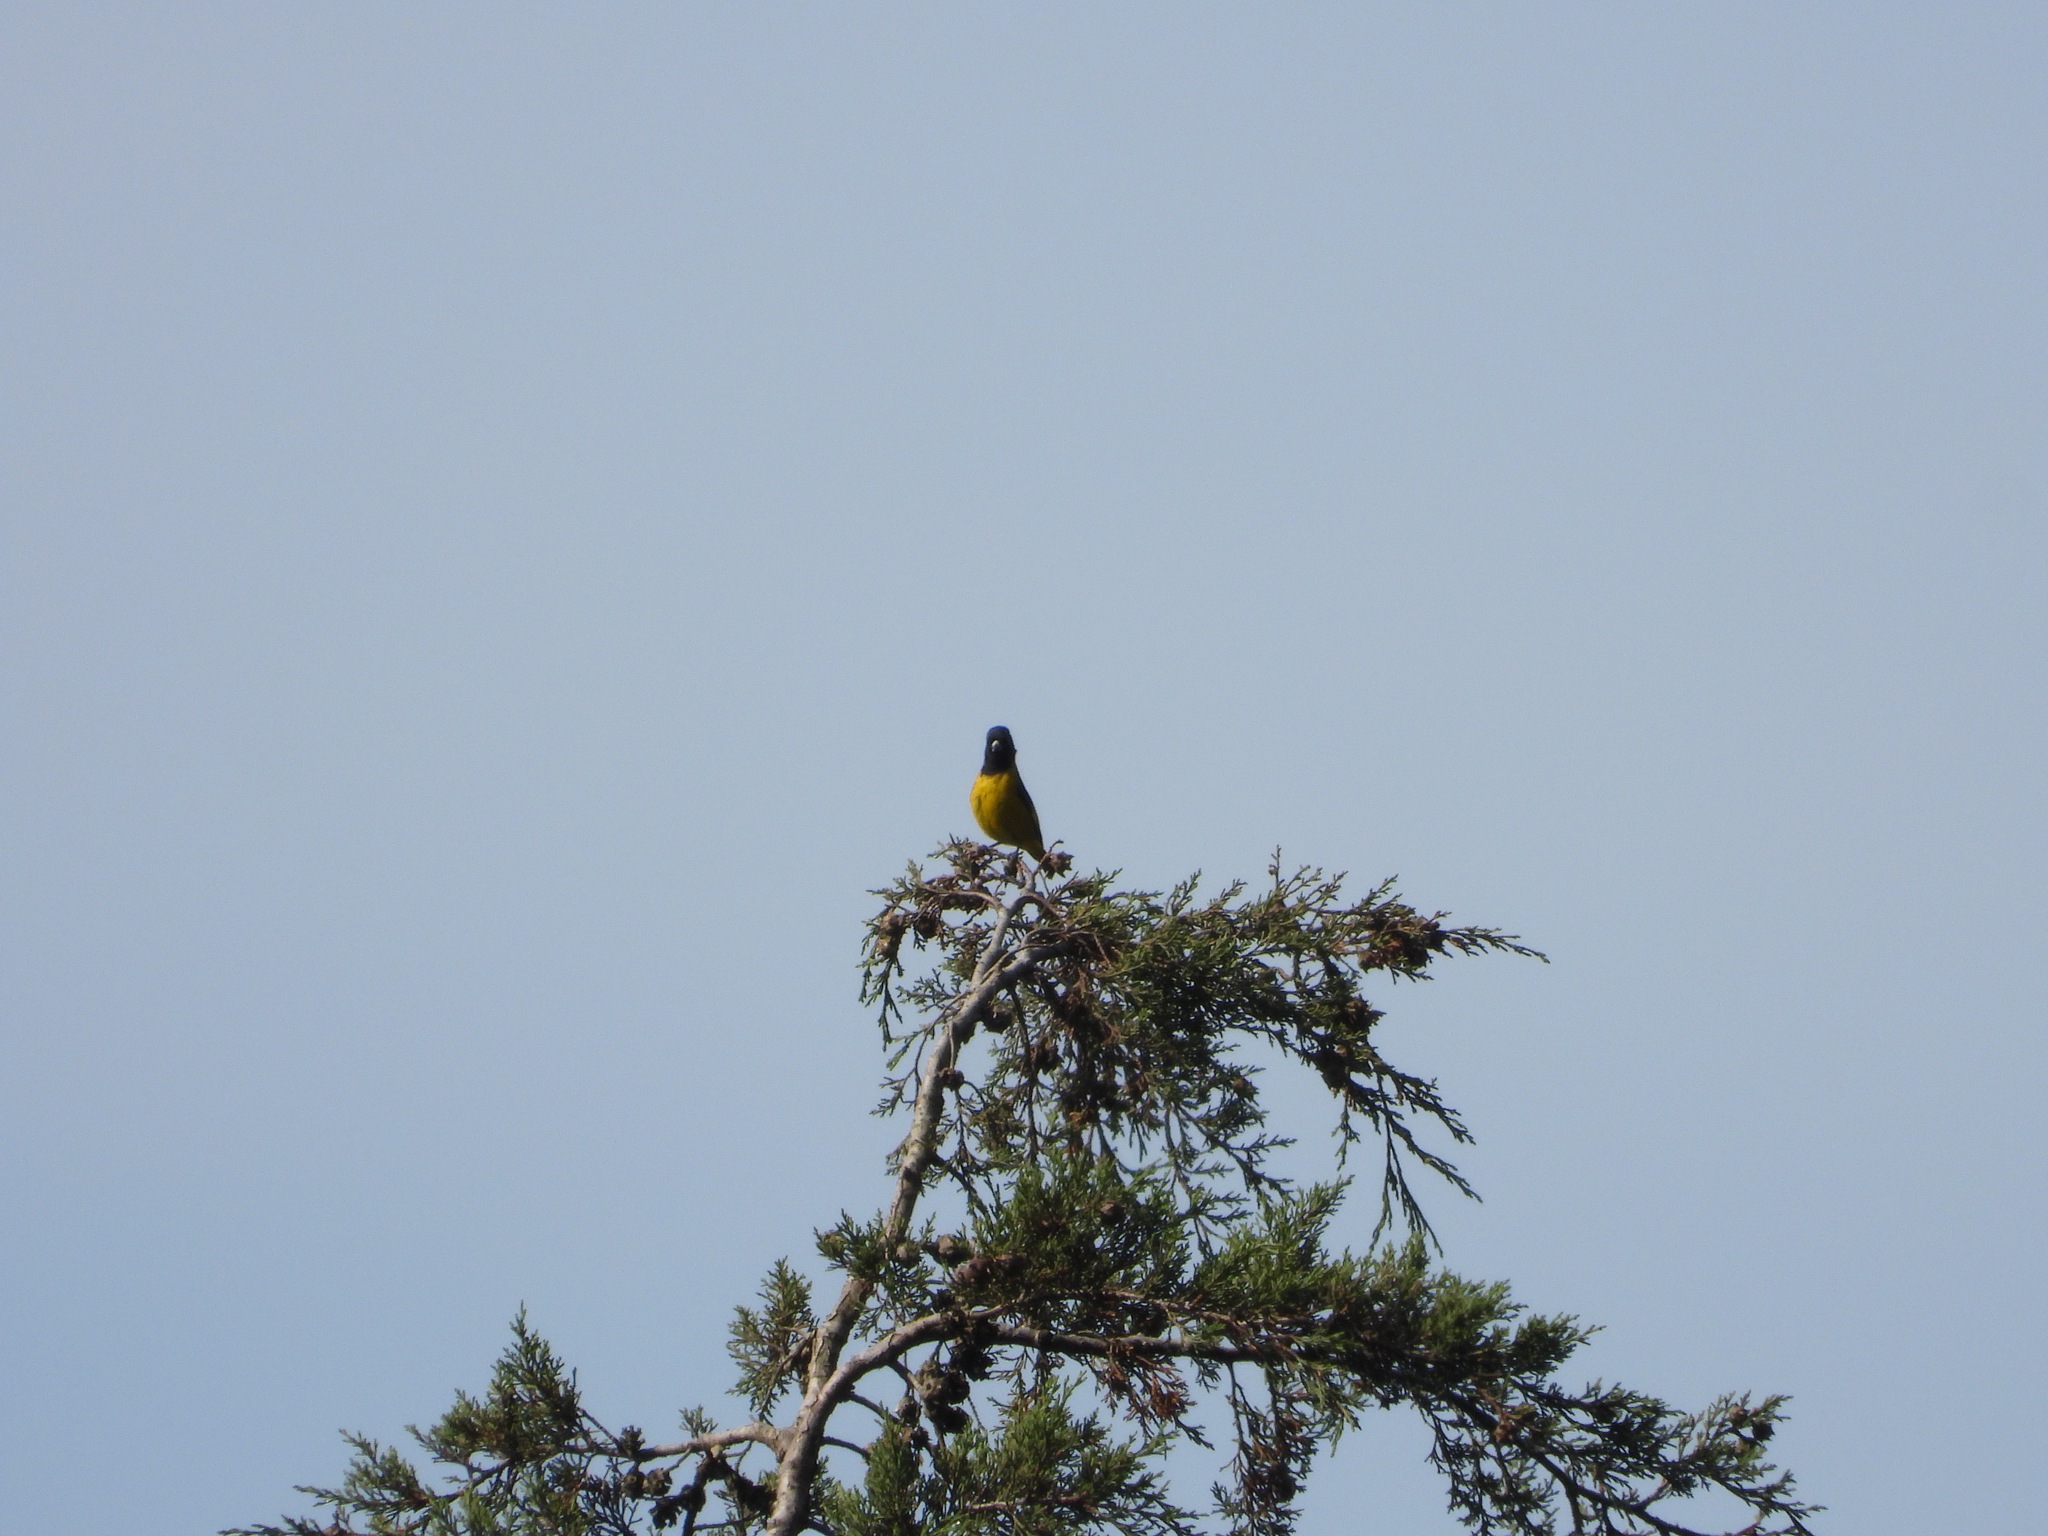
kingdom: Animalia
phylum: Chordata
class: Aves
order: Passeriformes
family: Fringillidae
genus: Spinus
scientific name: Spinus notatus
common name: Black-headed siskin
